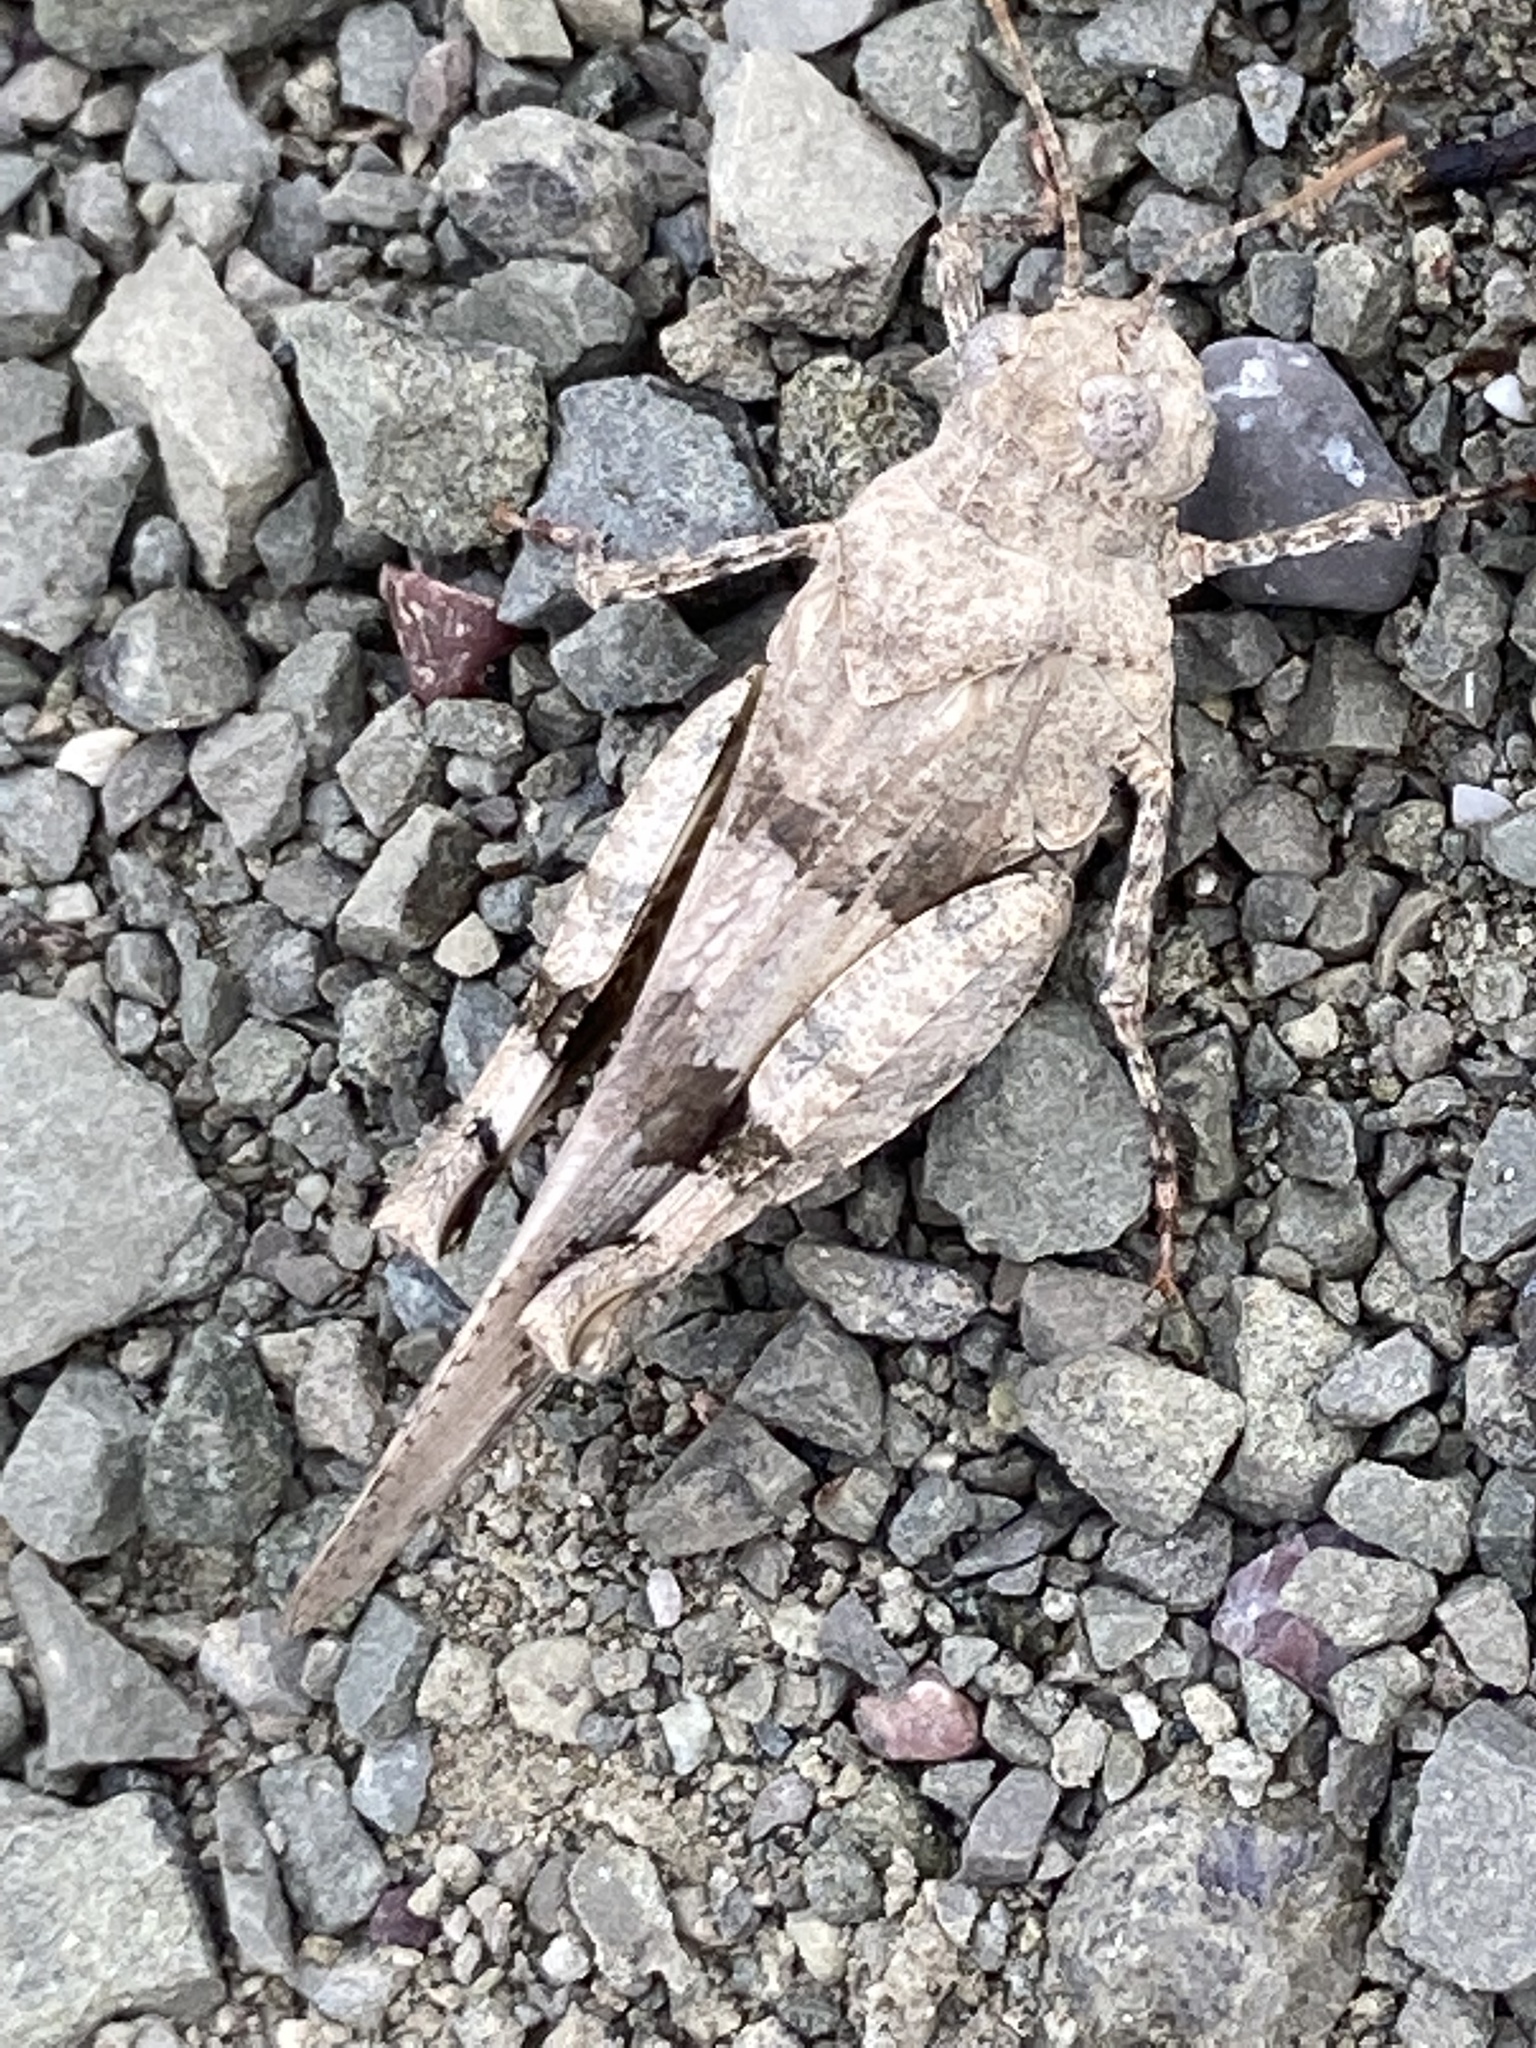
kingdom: Animalia
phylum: Arthropoda
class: Insecta
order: Orthoptera
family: Acrididae
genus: Oedipoda
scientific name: Oedipoda caerulescens
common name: Blue-winged grasshopper
